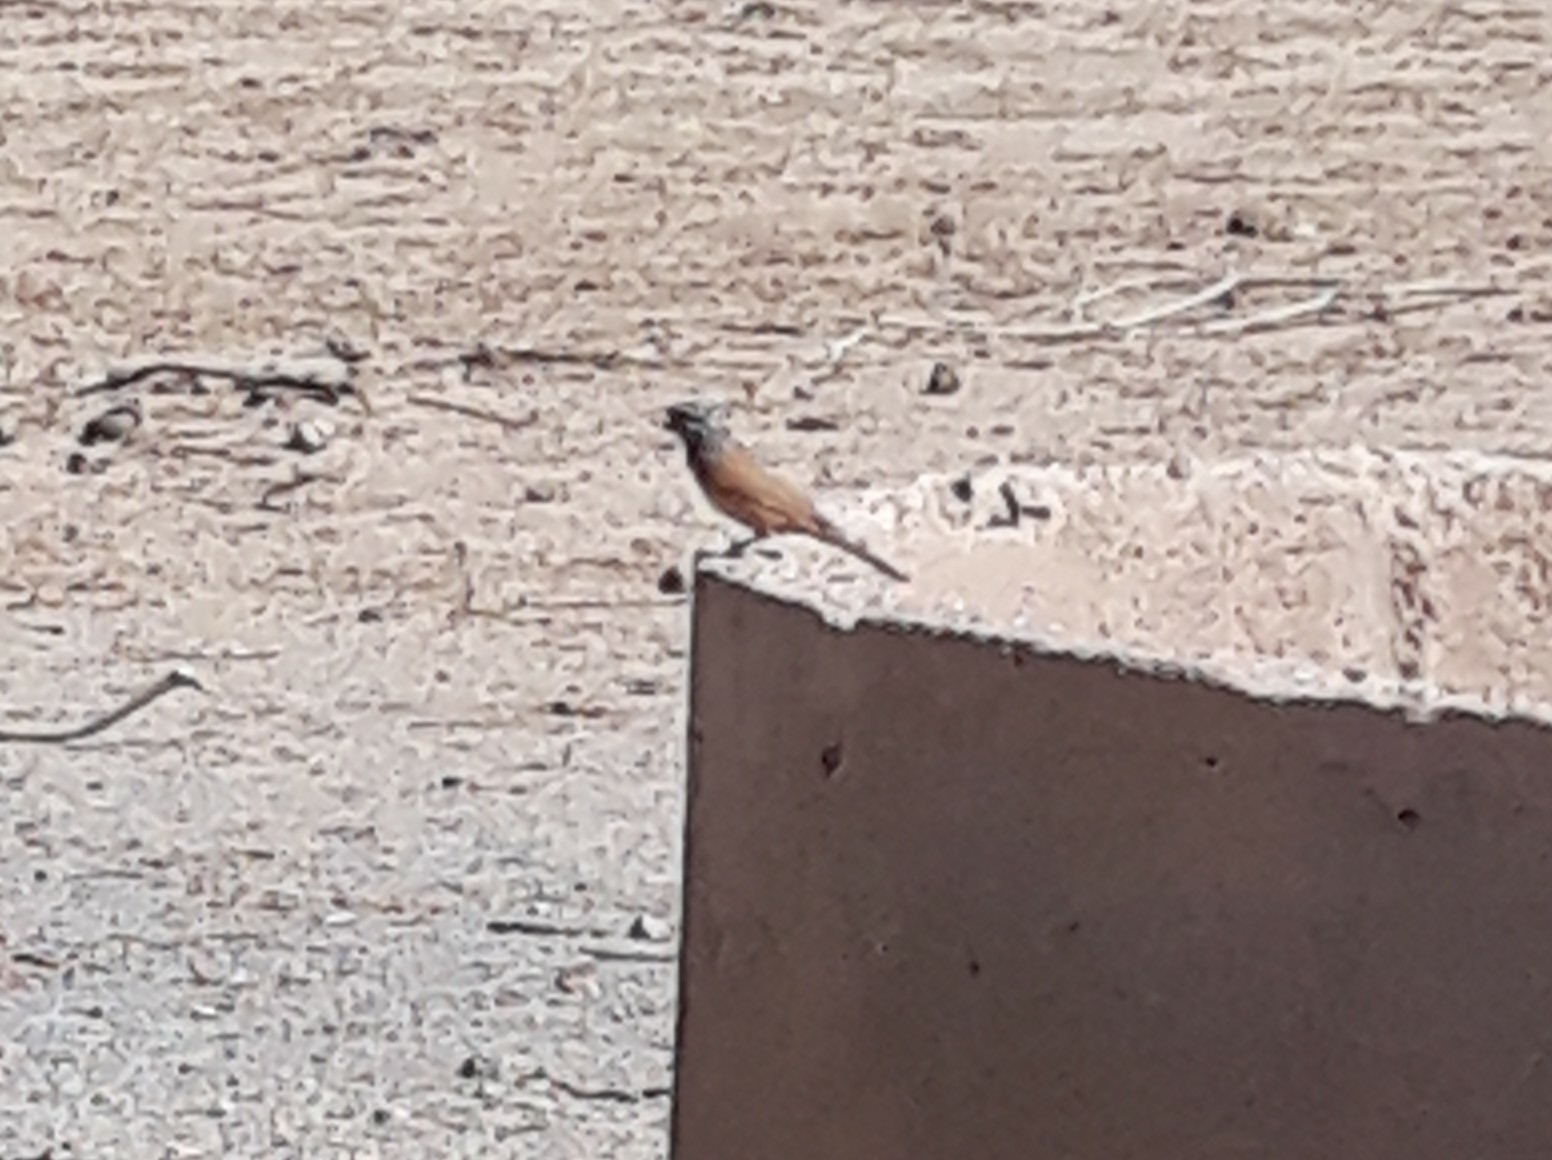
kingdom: Animalia
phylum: Chordata
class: Aves
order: Passeriformes
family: Emberizidae
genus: Emberiza
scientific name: Emberiza sahari
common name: House bunting
